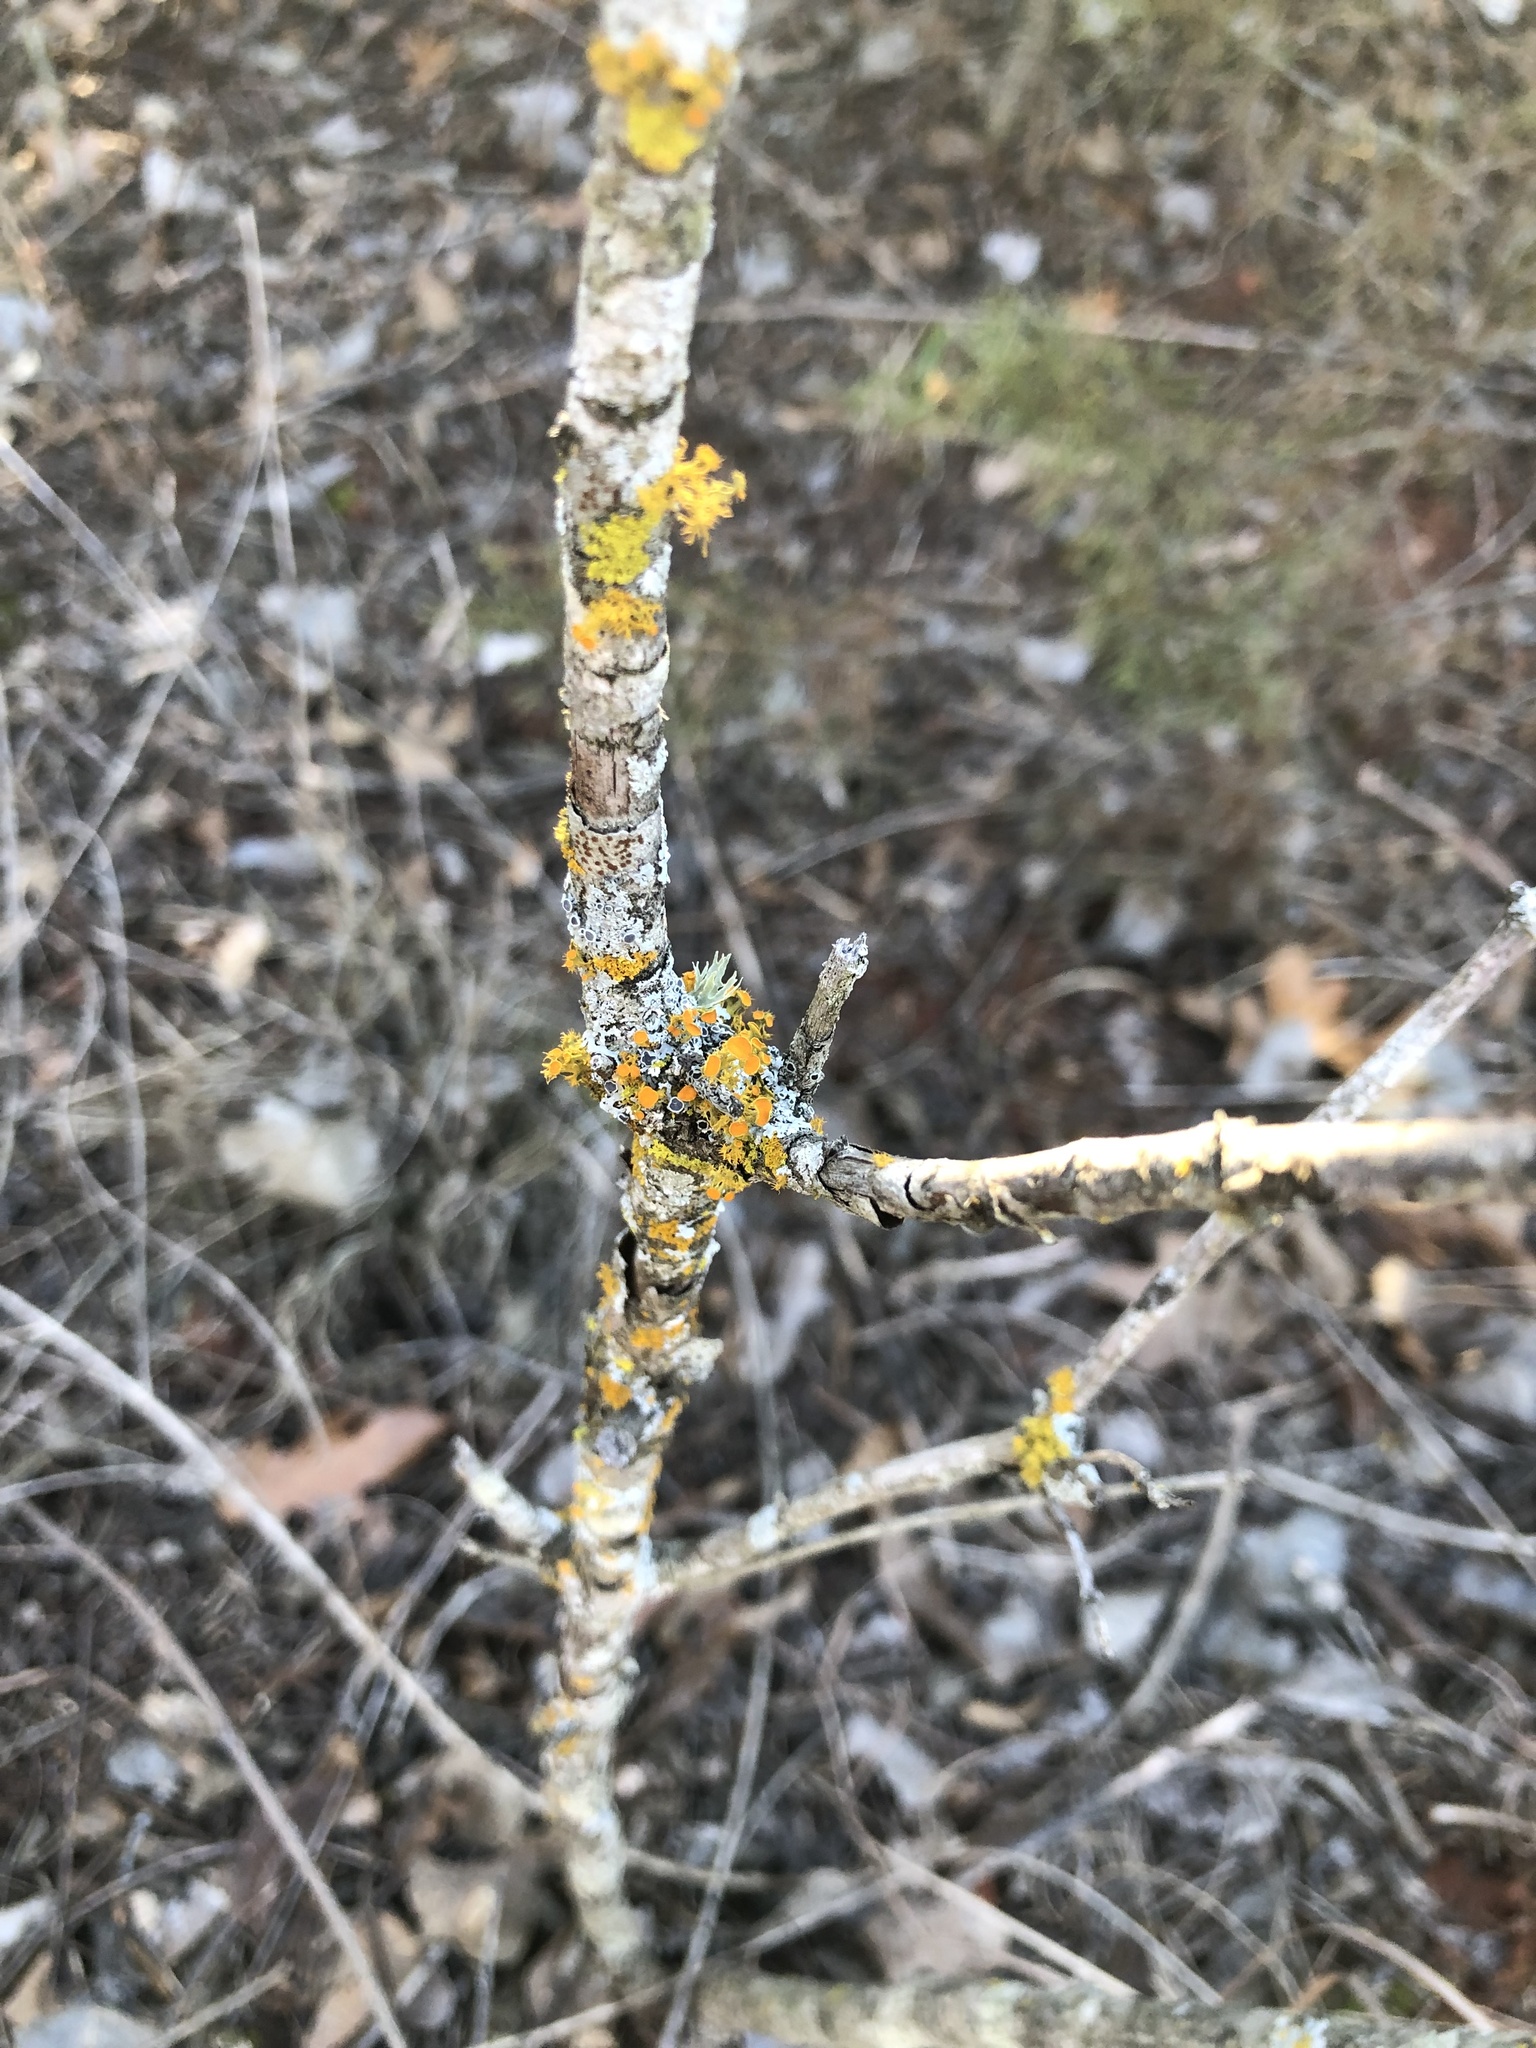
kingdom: Fungi
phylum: Ascomycota
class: Lecanoromycetes
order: Teloschistales
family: Teloschistaceae
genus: Niorma
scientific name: Niorma chrysophthalma
